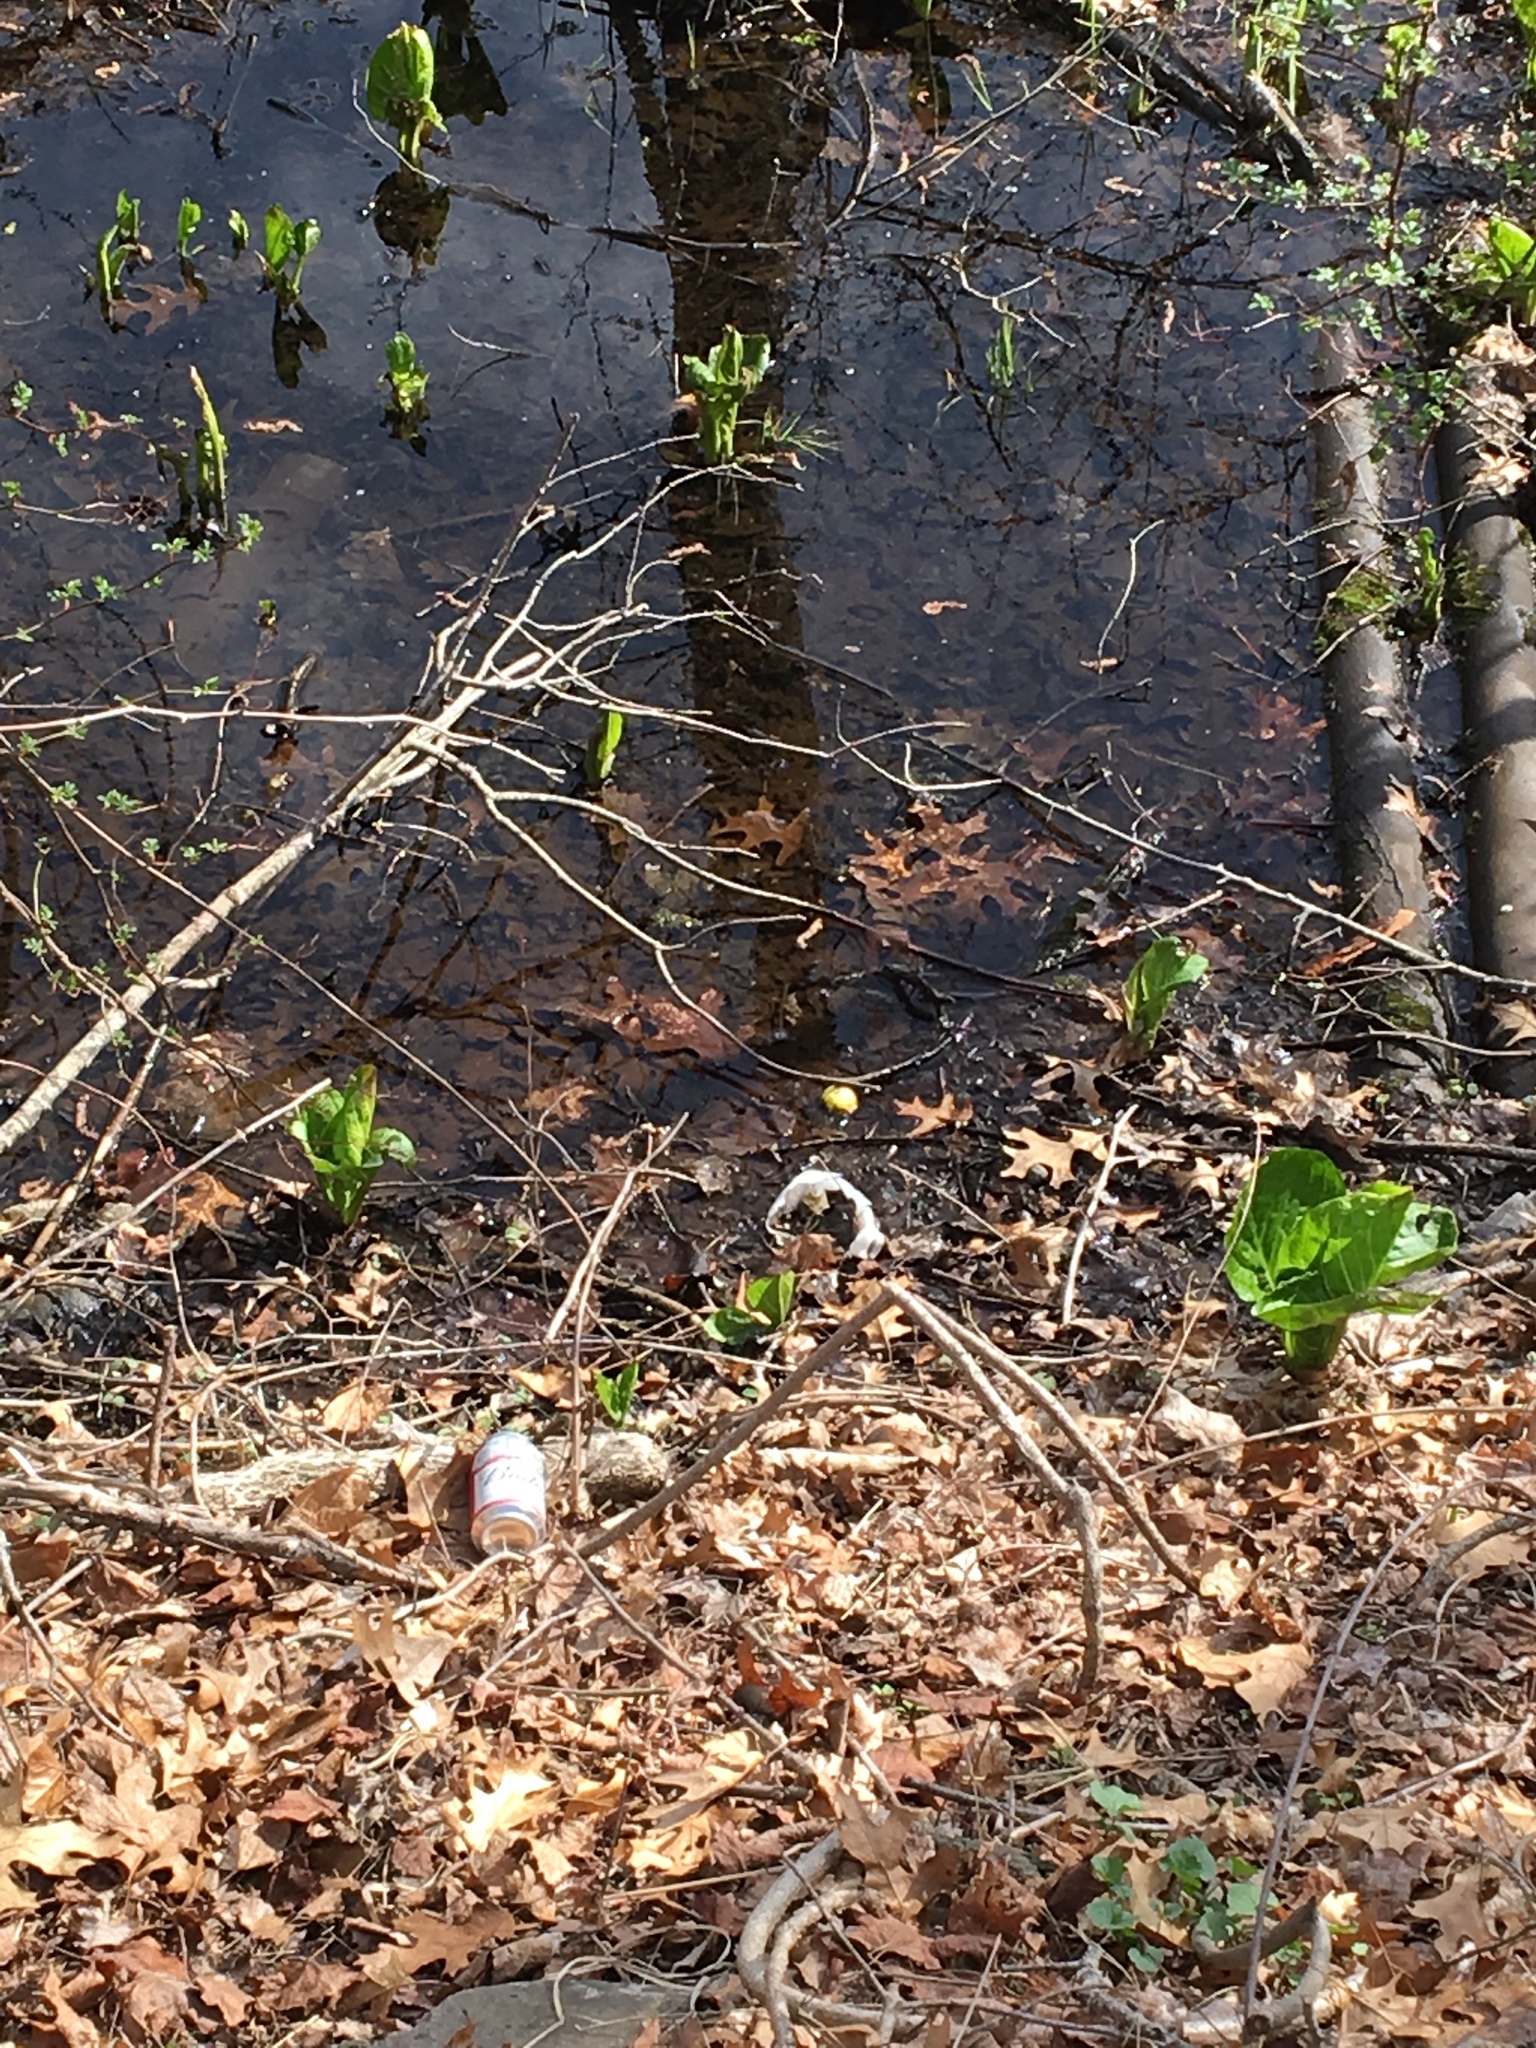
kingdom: Plantae
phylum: Tracheophyta
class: Liliopsida
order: Alismatales
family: Araceae
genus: Symplocarpus
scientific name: Symplocarpus foetidus
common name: Eastern skunk cabbage
